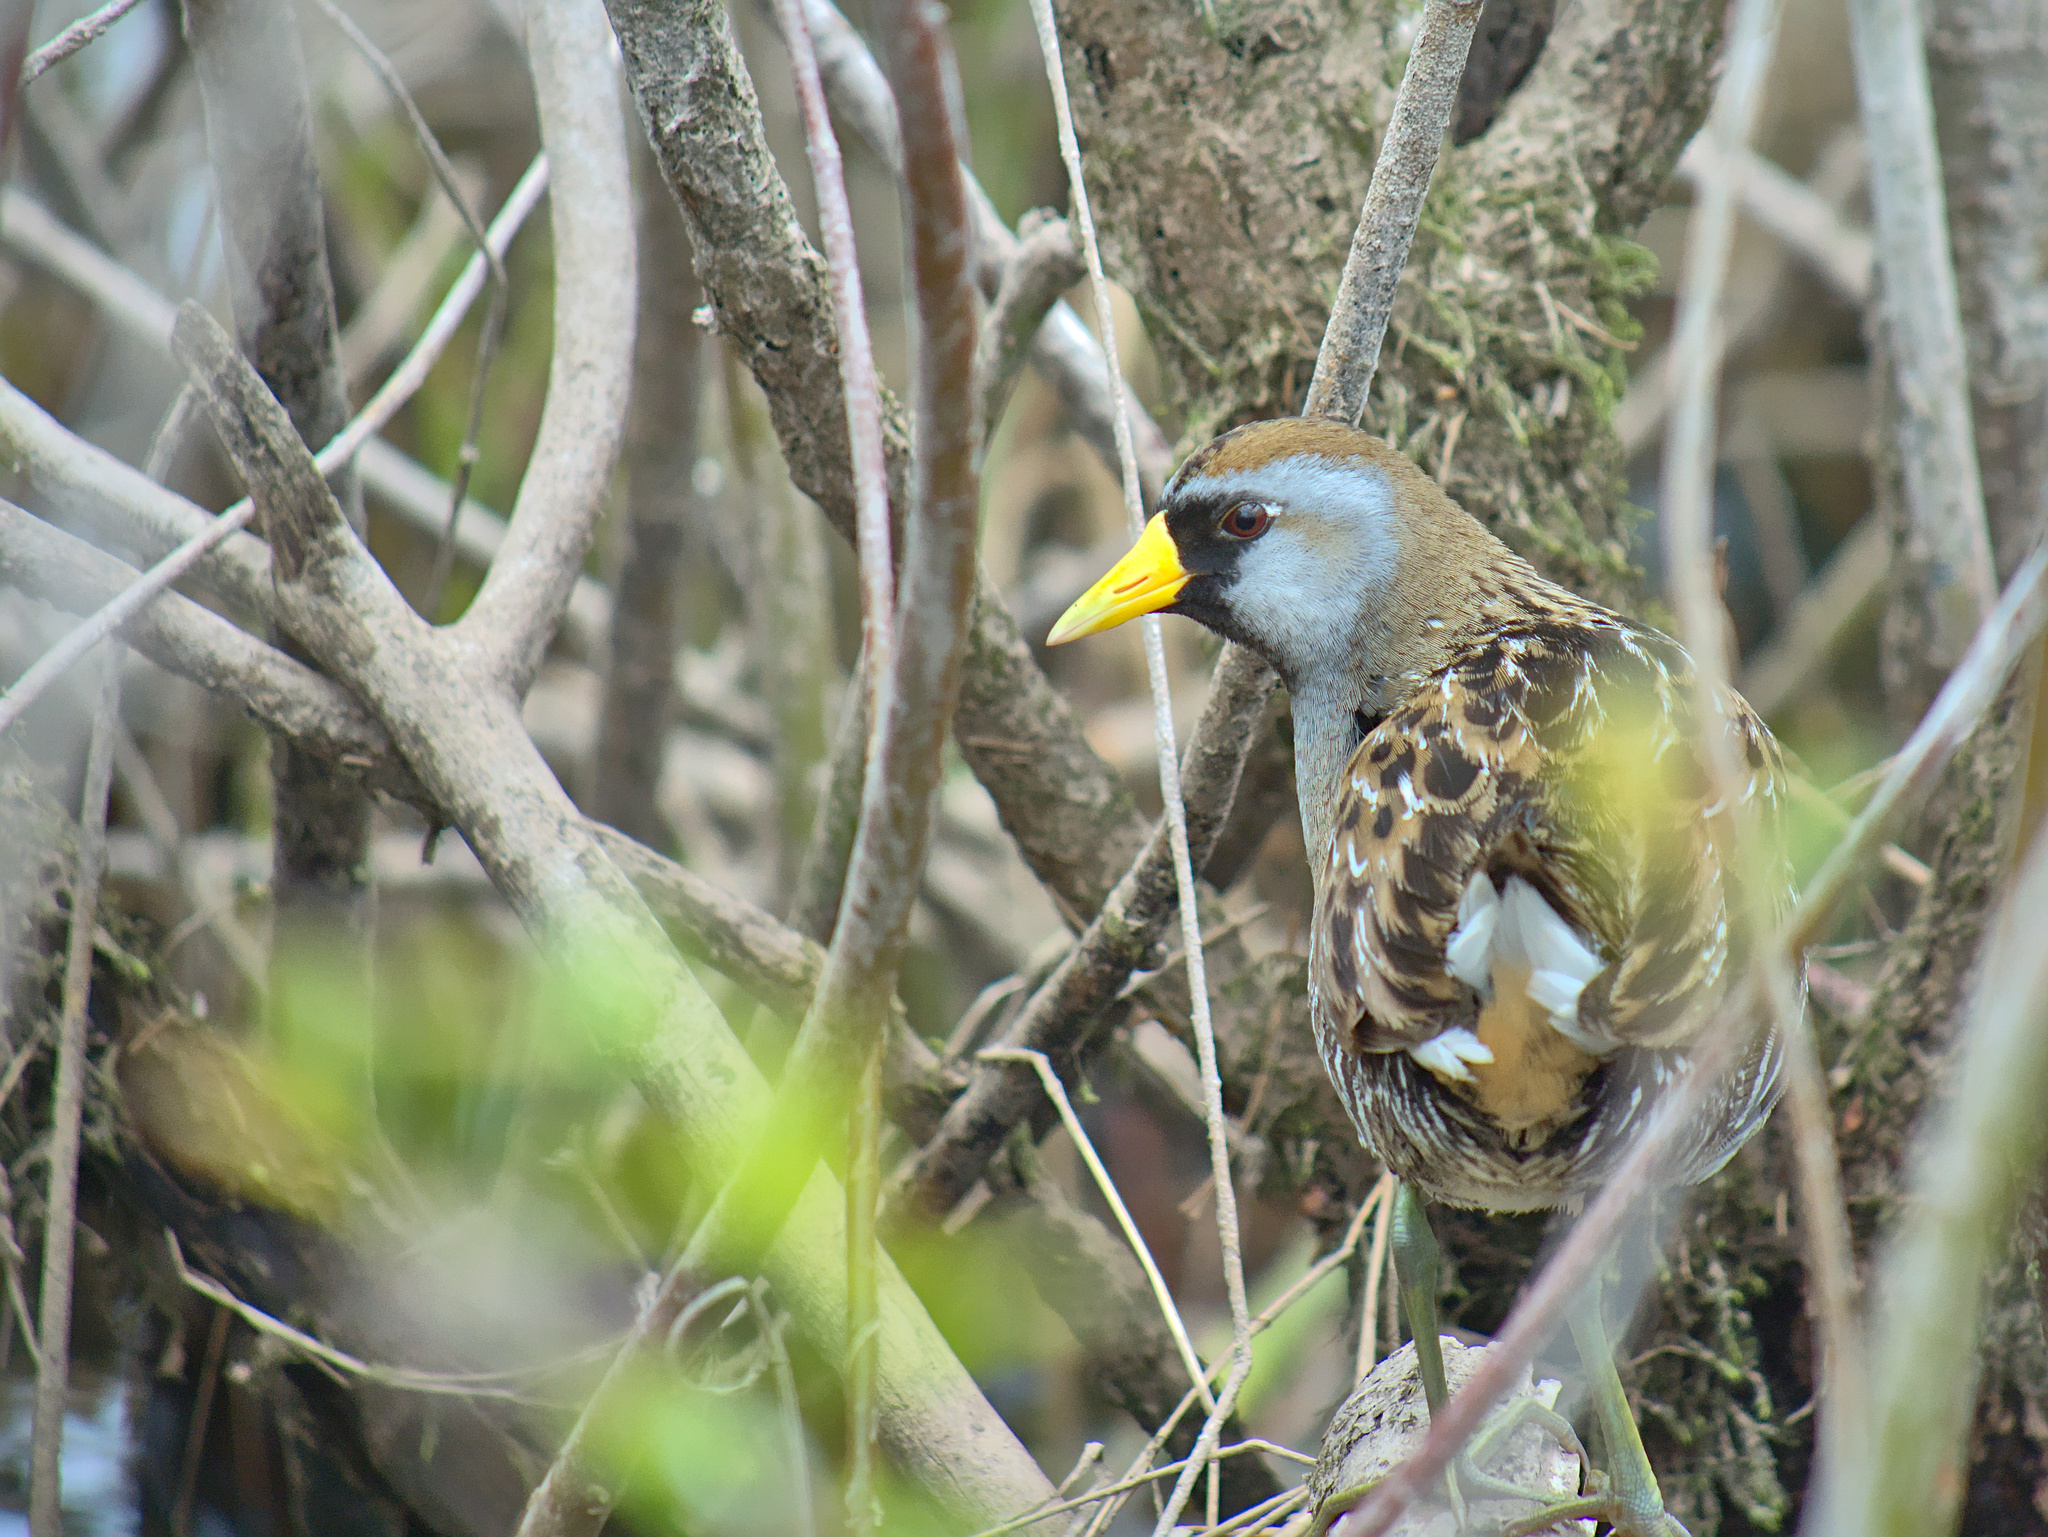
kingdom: Animalia
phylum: Chordata
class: Aves
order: Gruiformes
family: Rallidae
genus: Porzana
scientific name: Porzana carolina
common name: Sora
